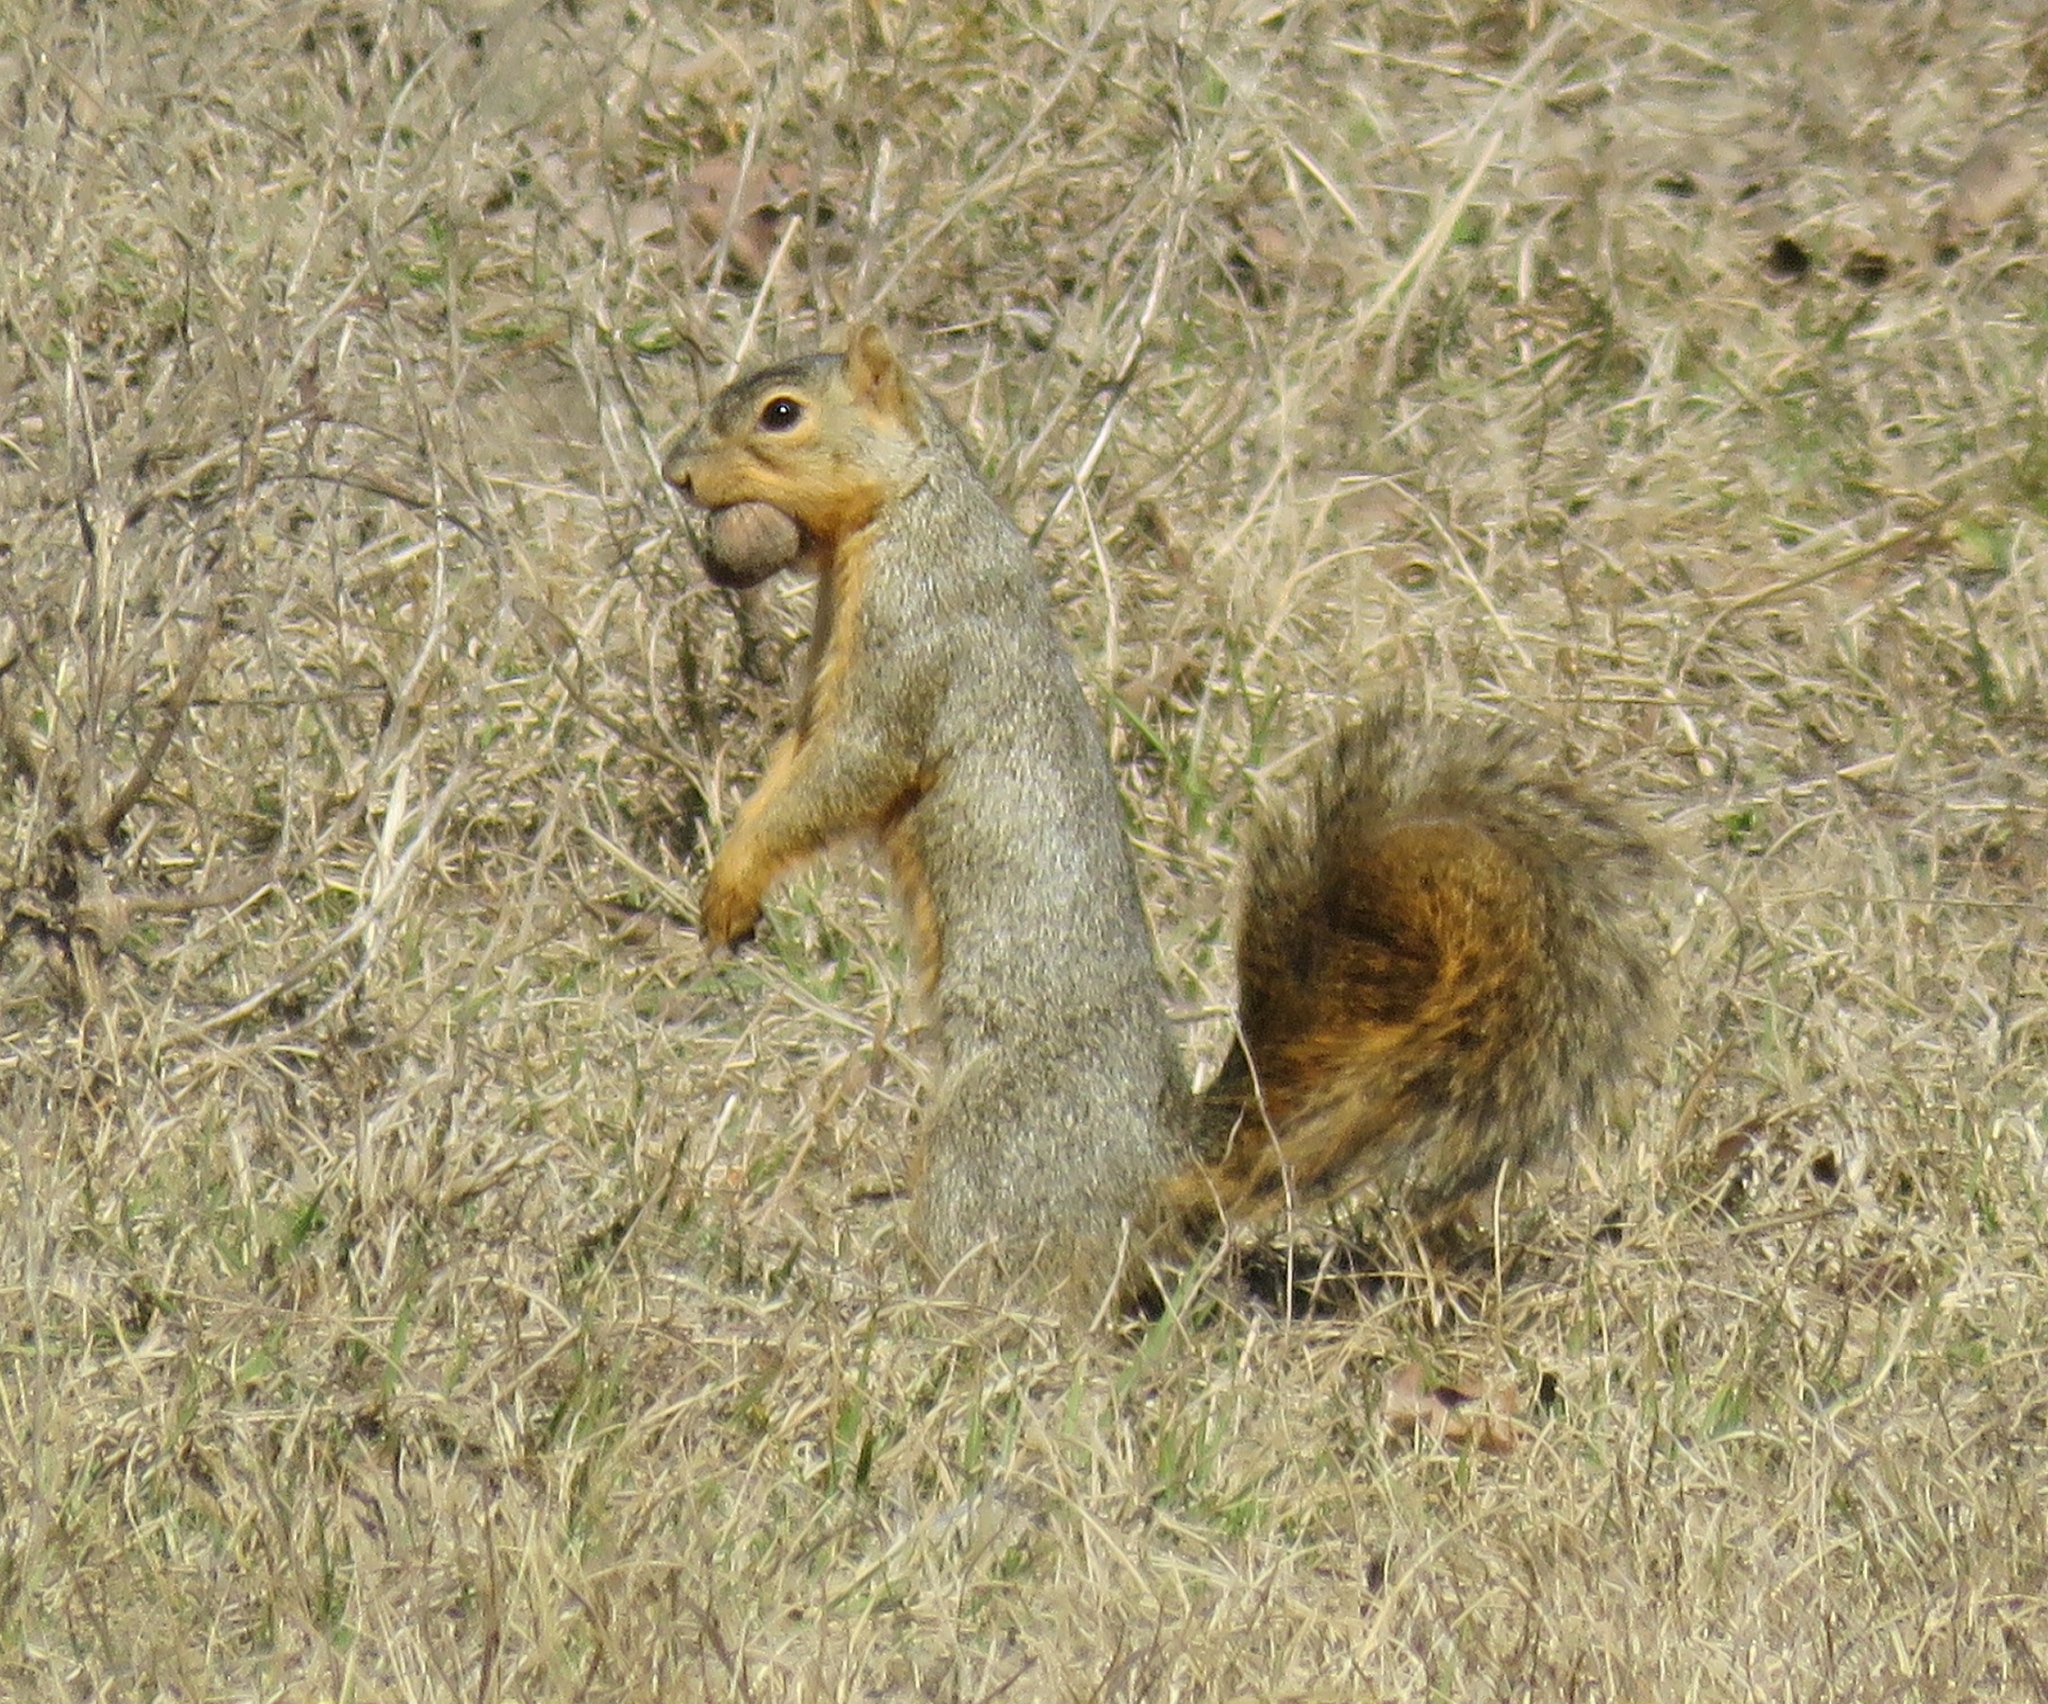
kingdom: Animalia
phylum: Chordata
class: Mammalia
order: Rodentia
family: Sciuridae
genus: Sciurus
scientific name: Sciurus niger
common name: Fox squirrel
